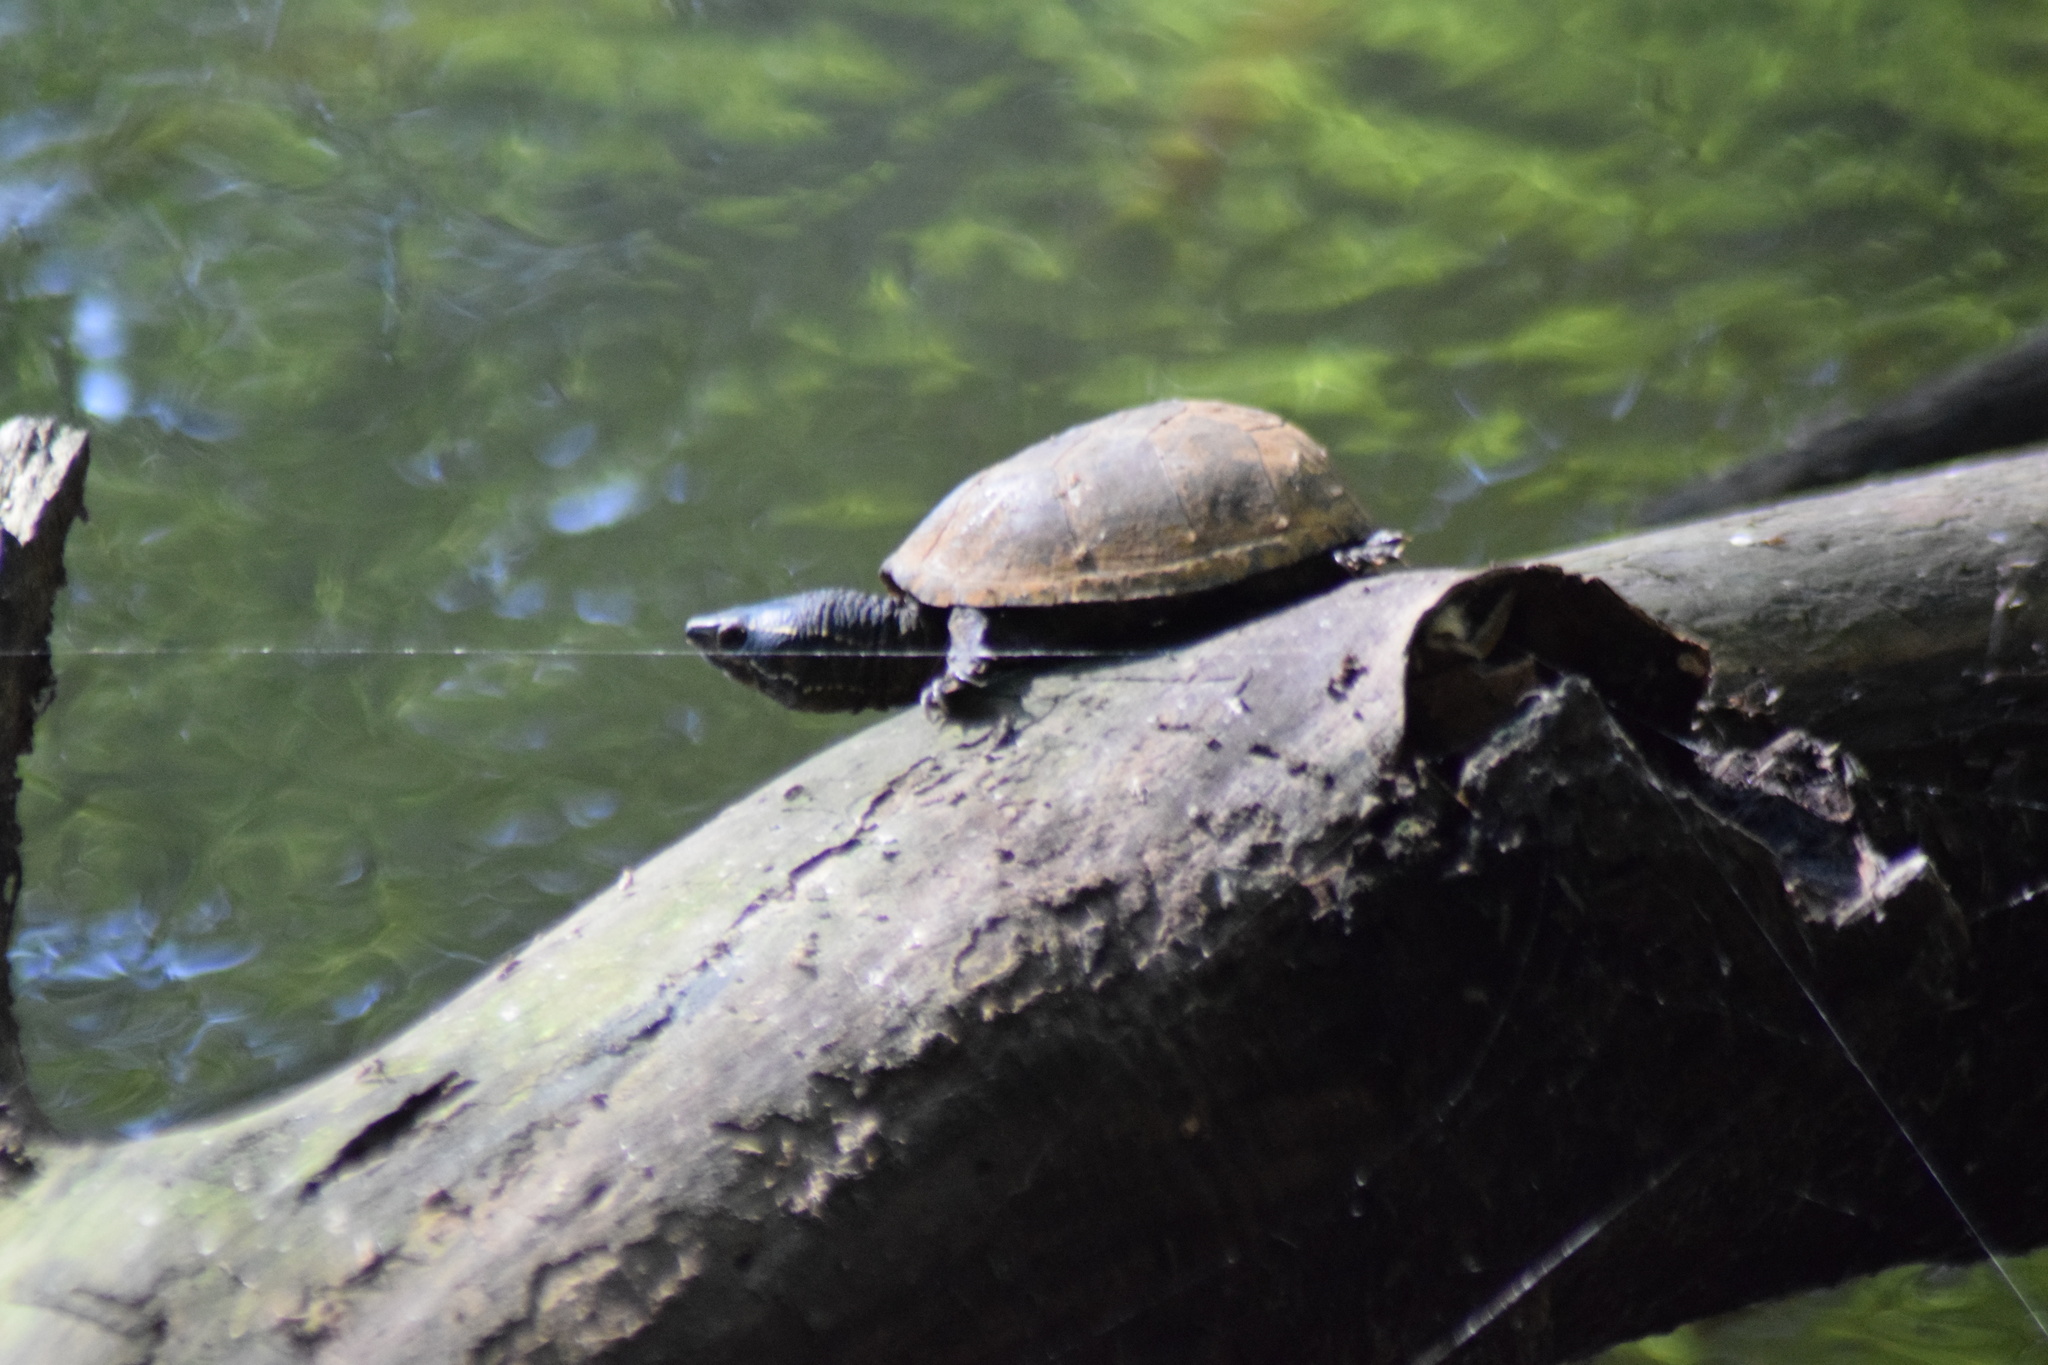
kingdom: Animalia
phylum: Chordata
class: Testudines
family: Kinosternidae
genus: Sternotherus
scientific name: Sternotherus odoratus
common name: Common musk turtle
